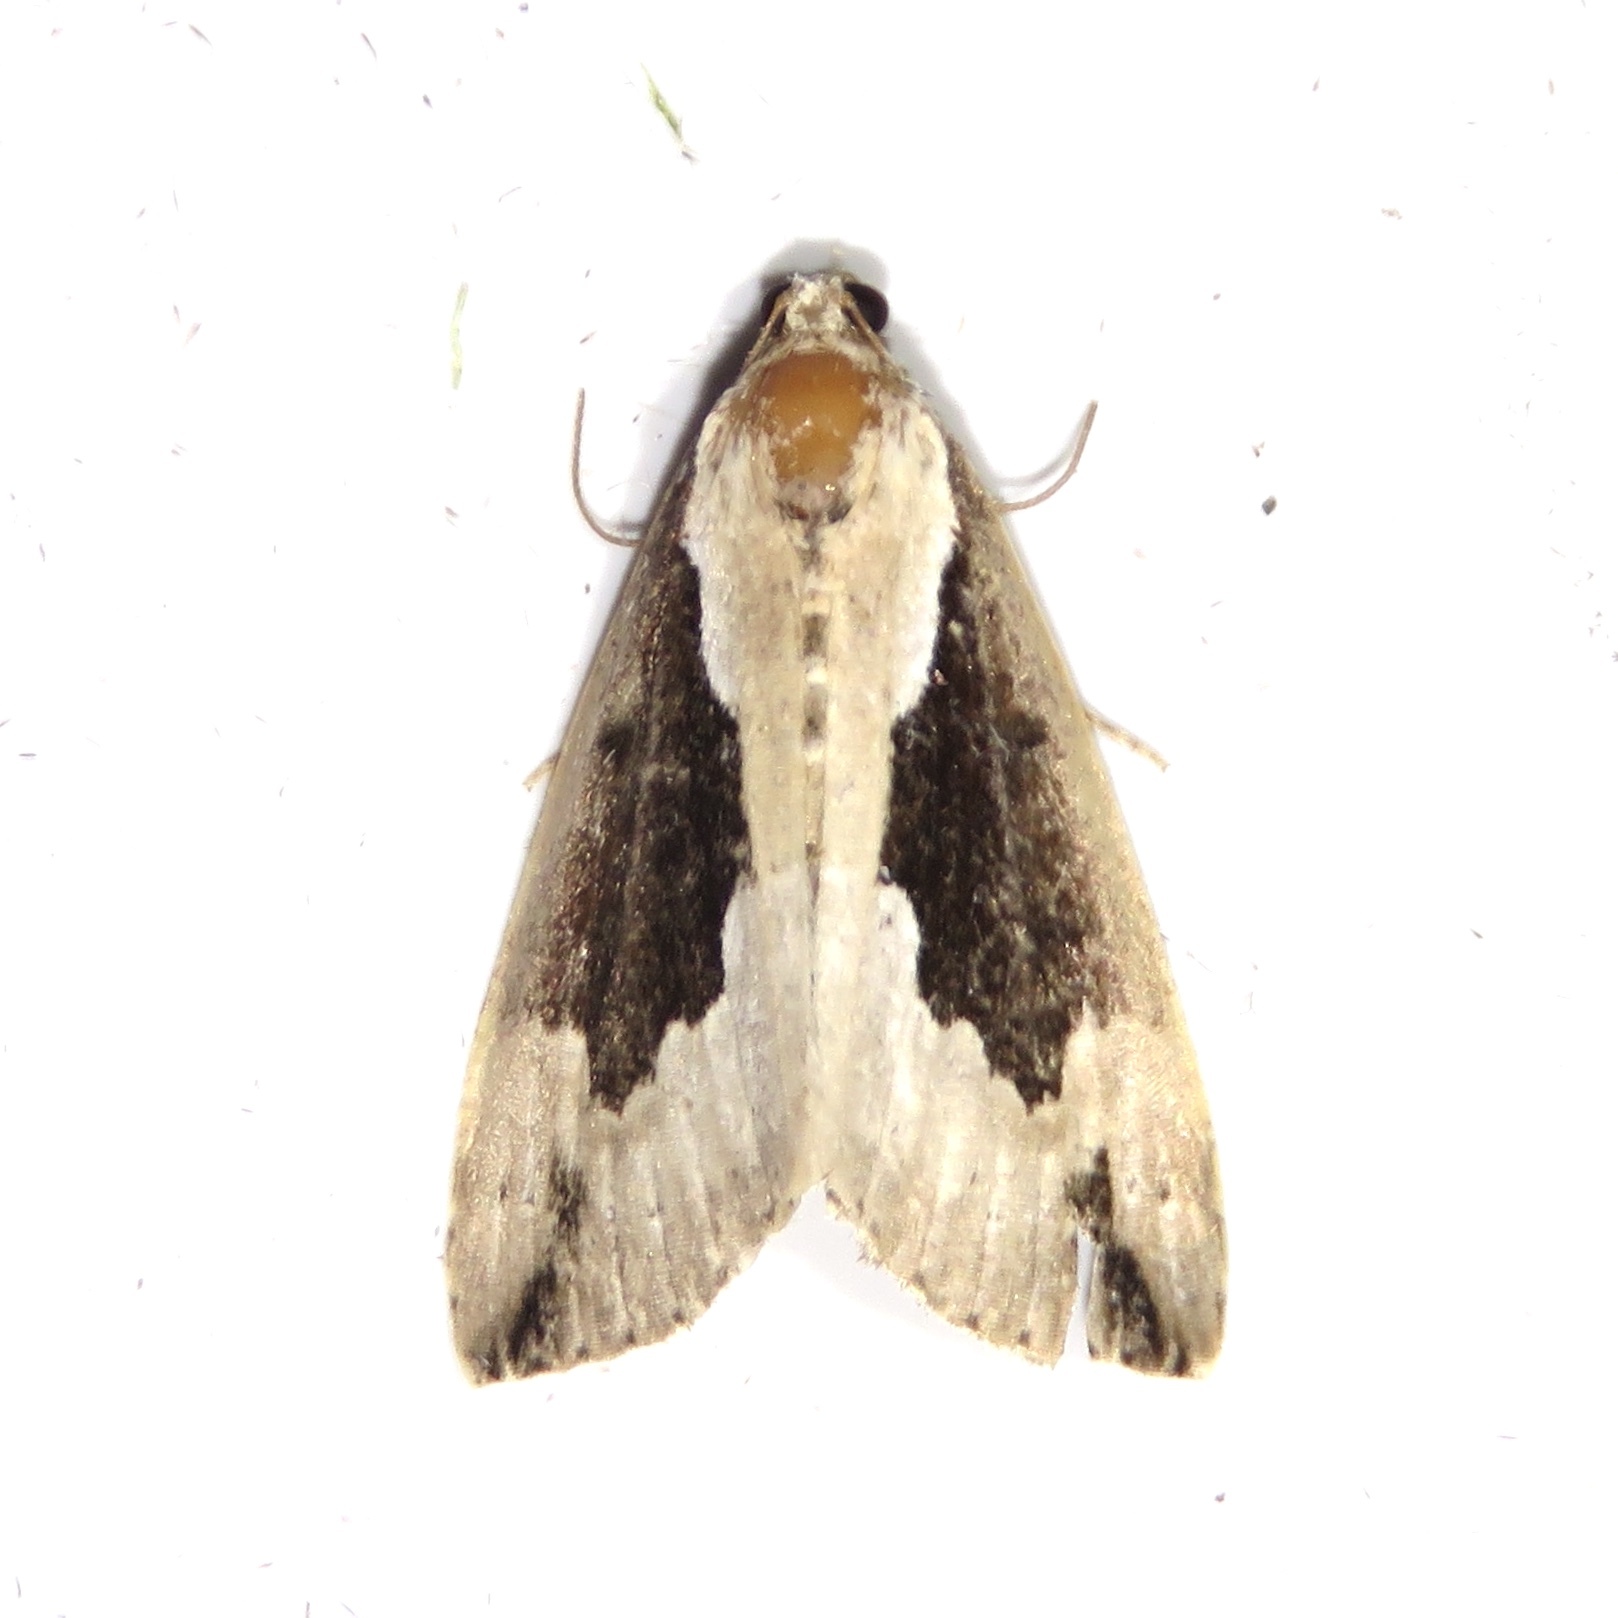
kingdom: Animalia
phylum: Arthropoda
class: Insecta
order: Lepidoptera
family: Erebidae
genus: Hypena
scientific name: Hypena baltimoralis
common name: Baltimore snout
